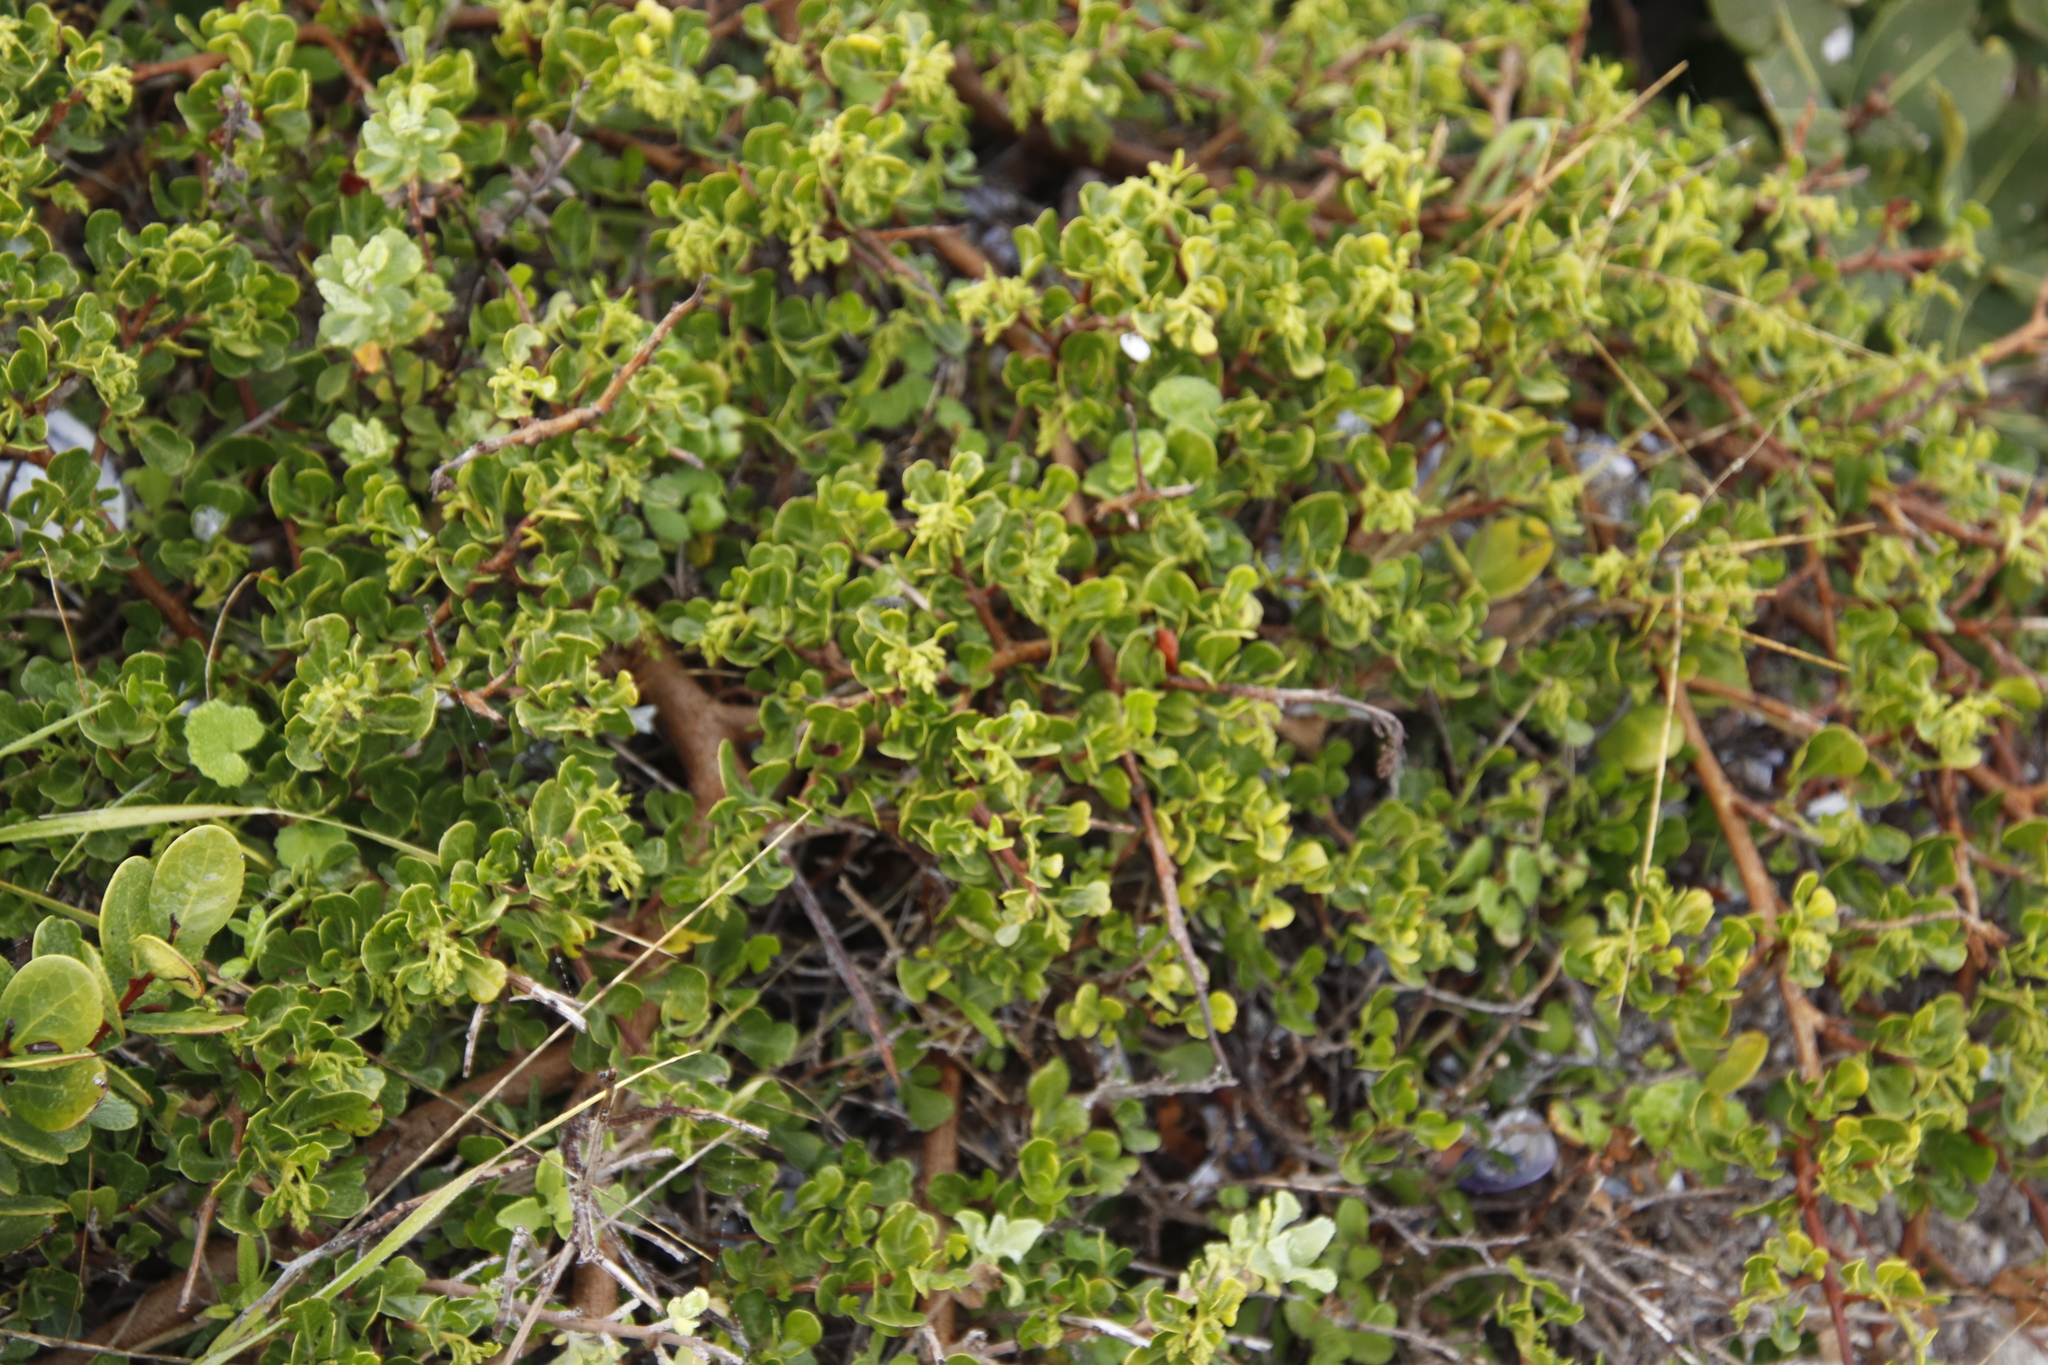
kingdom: Plantae
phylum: Tracheophyta
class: Magnoliopsida
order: Sapindales
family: Anacardiaceae
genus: Searsia
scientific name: Searsia glauca
